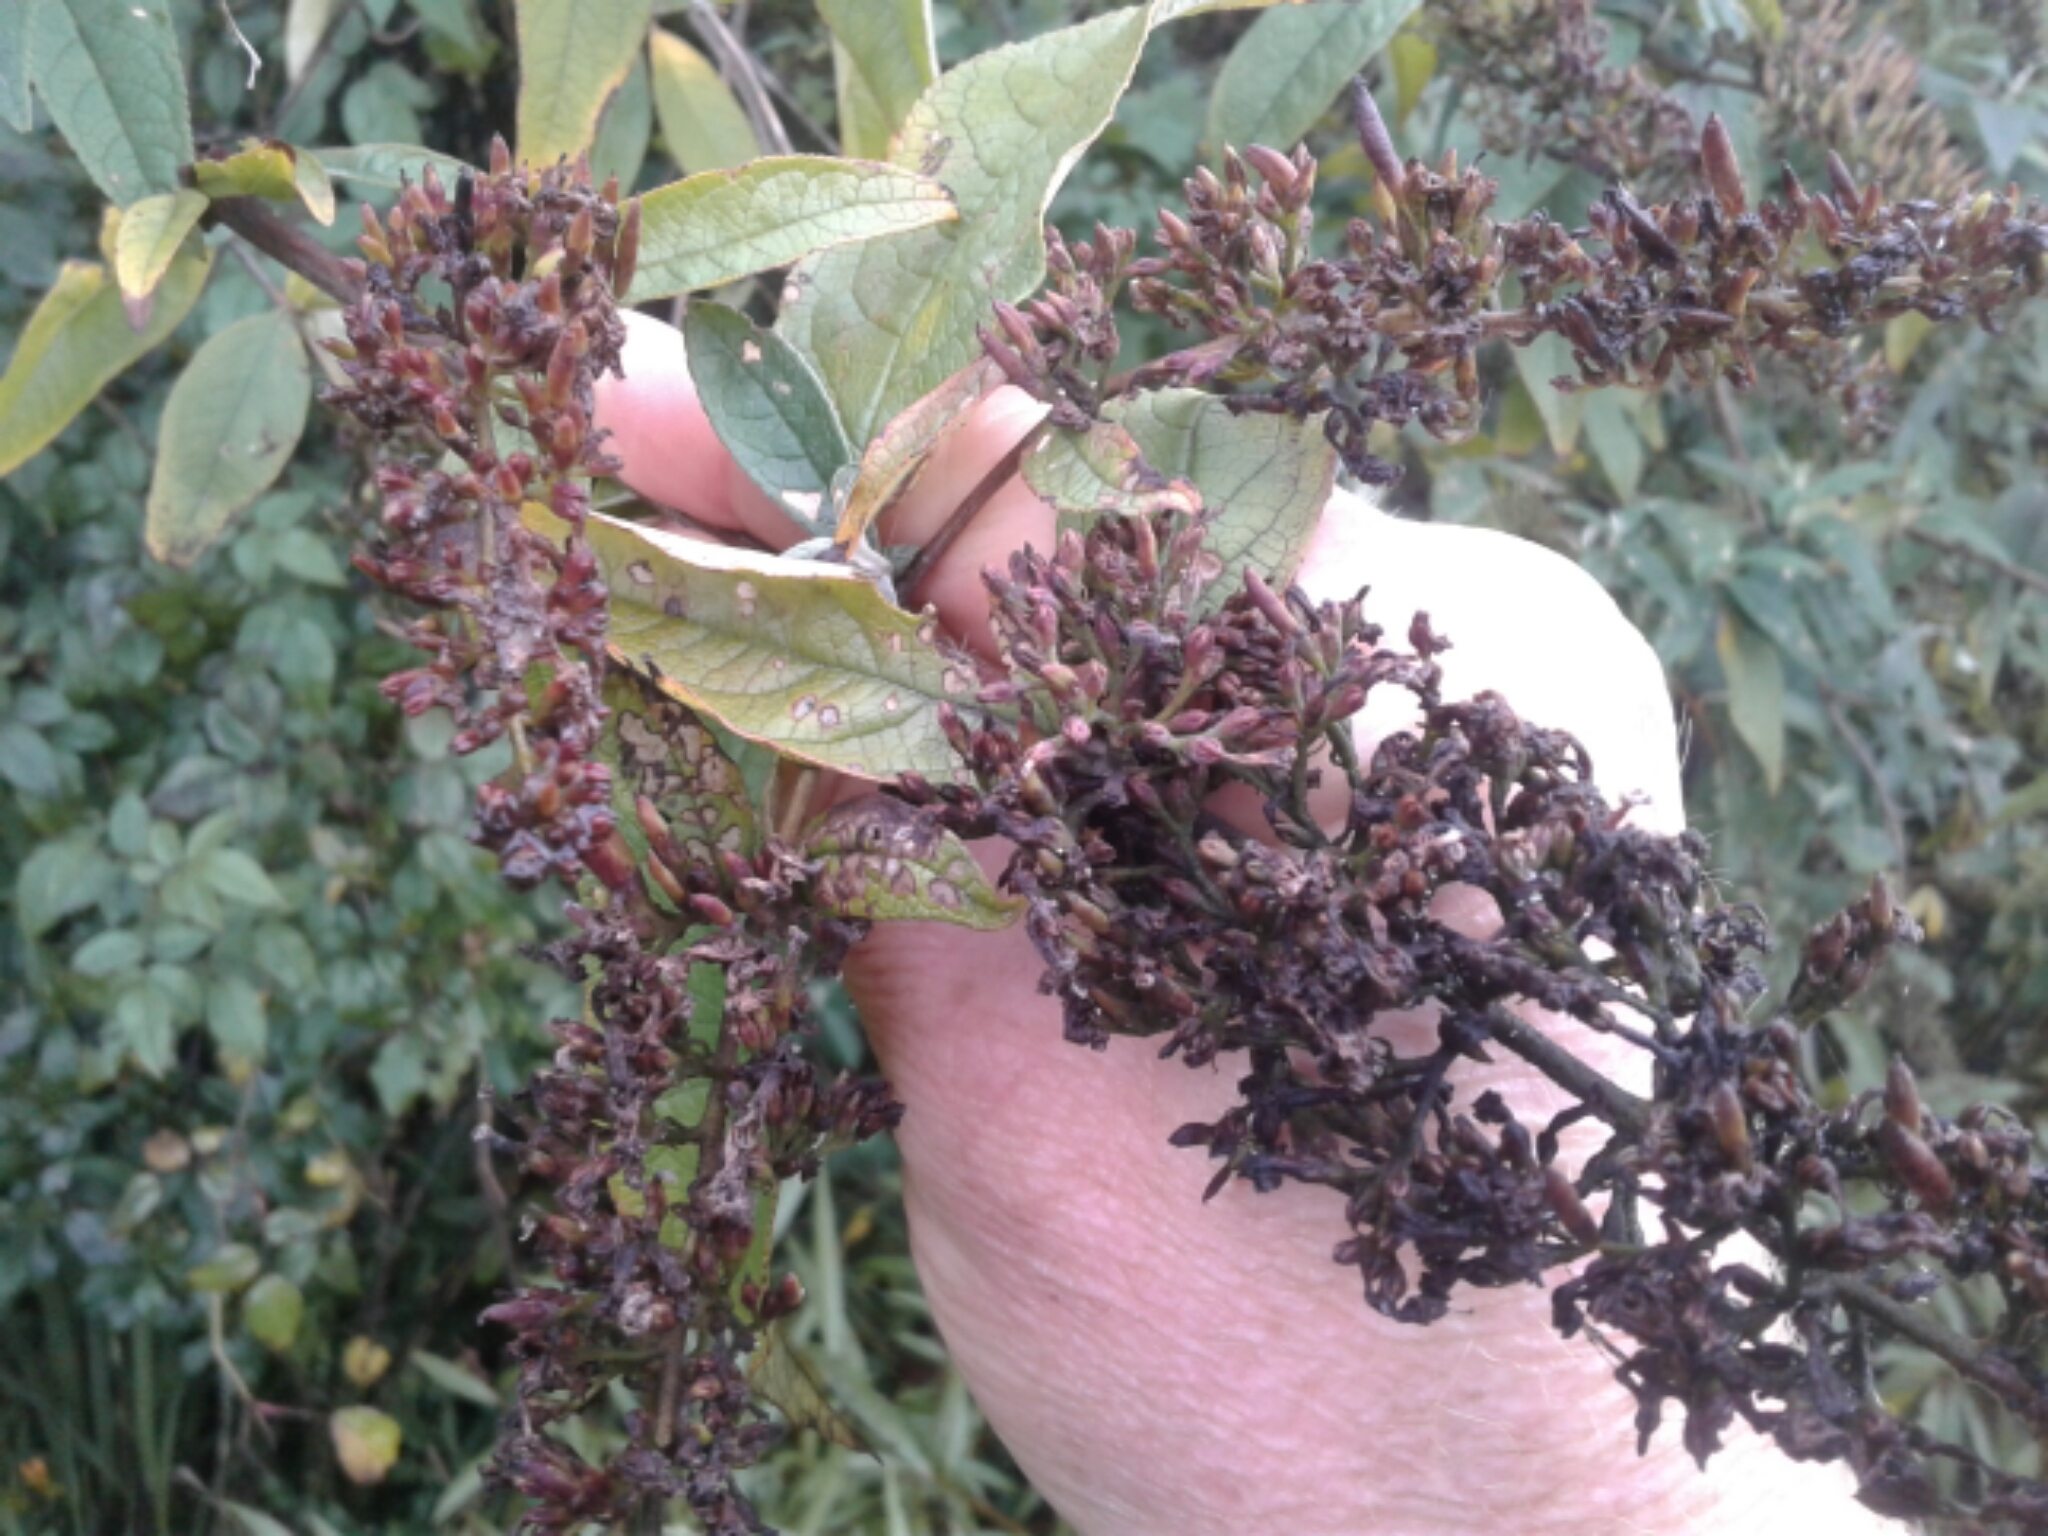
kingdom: Plantae
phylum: Tracheophyta
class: Magnoliopsida
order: Lamiales
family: Scrophulariaceae
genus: Buddleja
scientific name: Buddleja davidii
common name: Butterfly-bush
